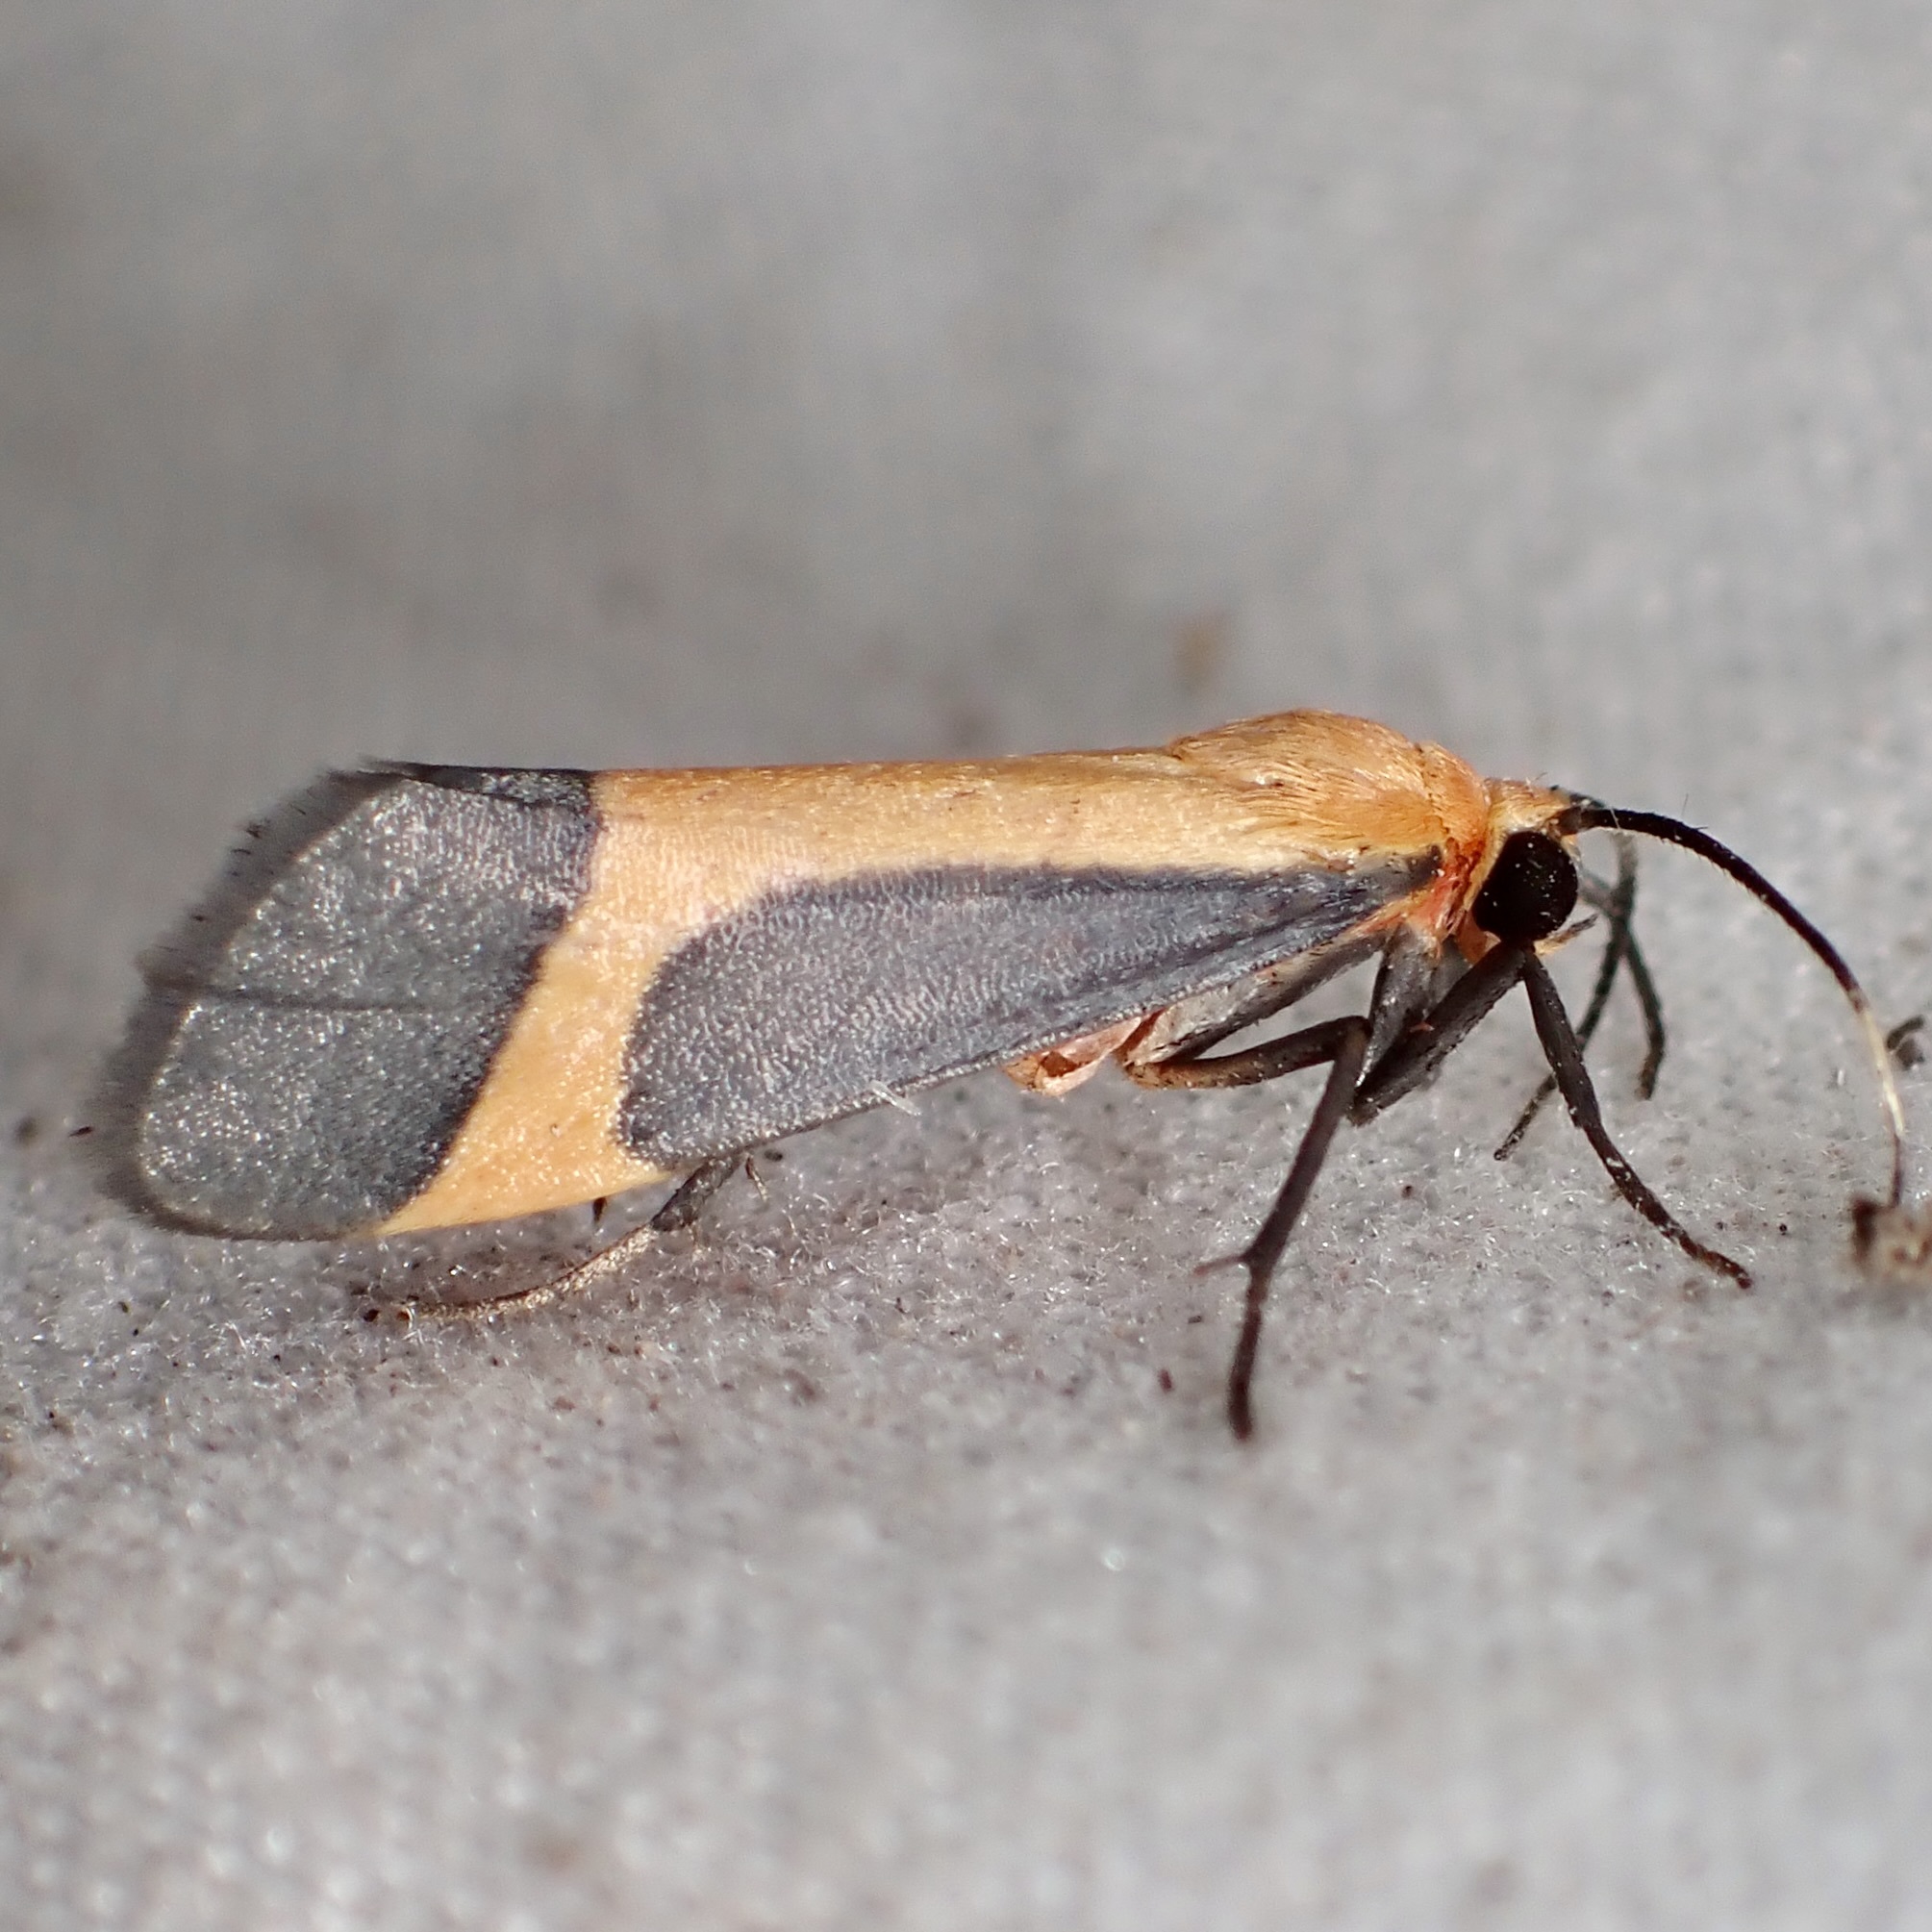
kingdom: Animalia
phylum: Arthropoda
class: Insecta
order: Lepidoptera
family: Erebidae
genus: Cisthene
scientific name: Cisthene angelus
